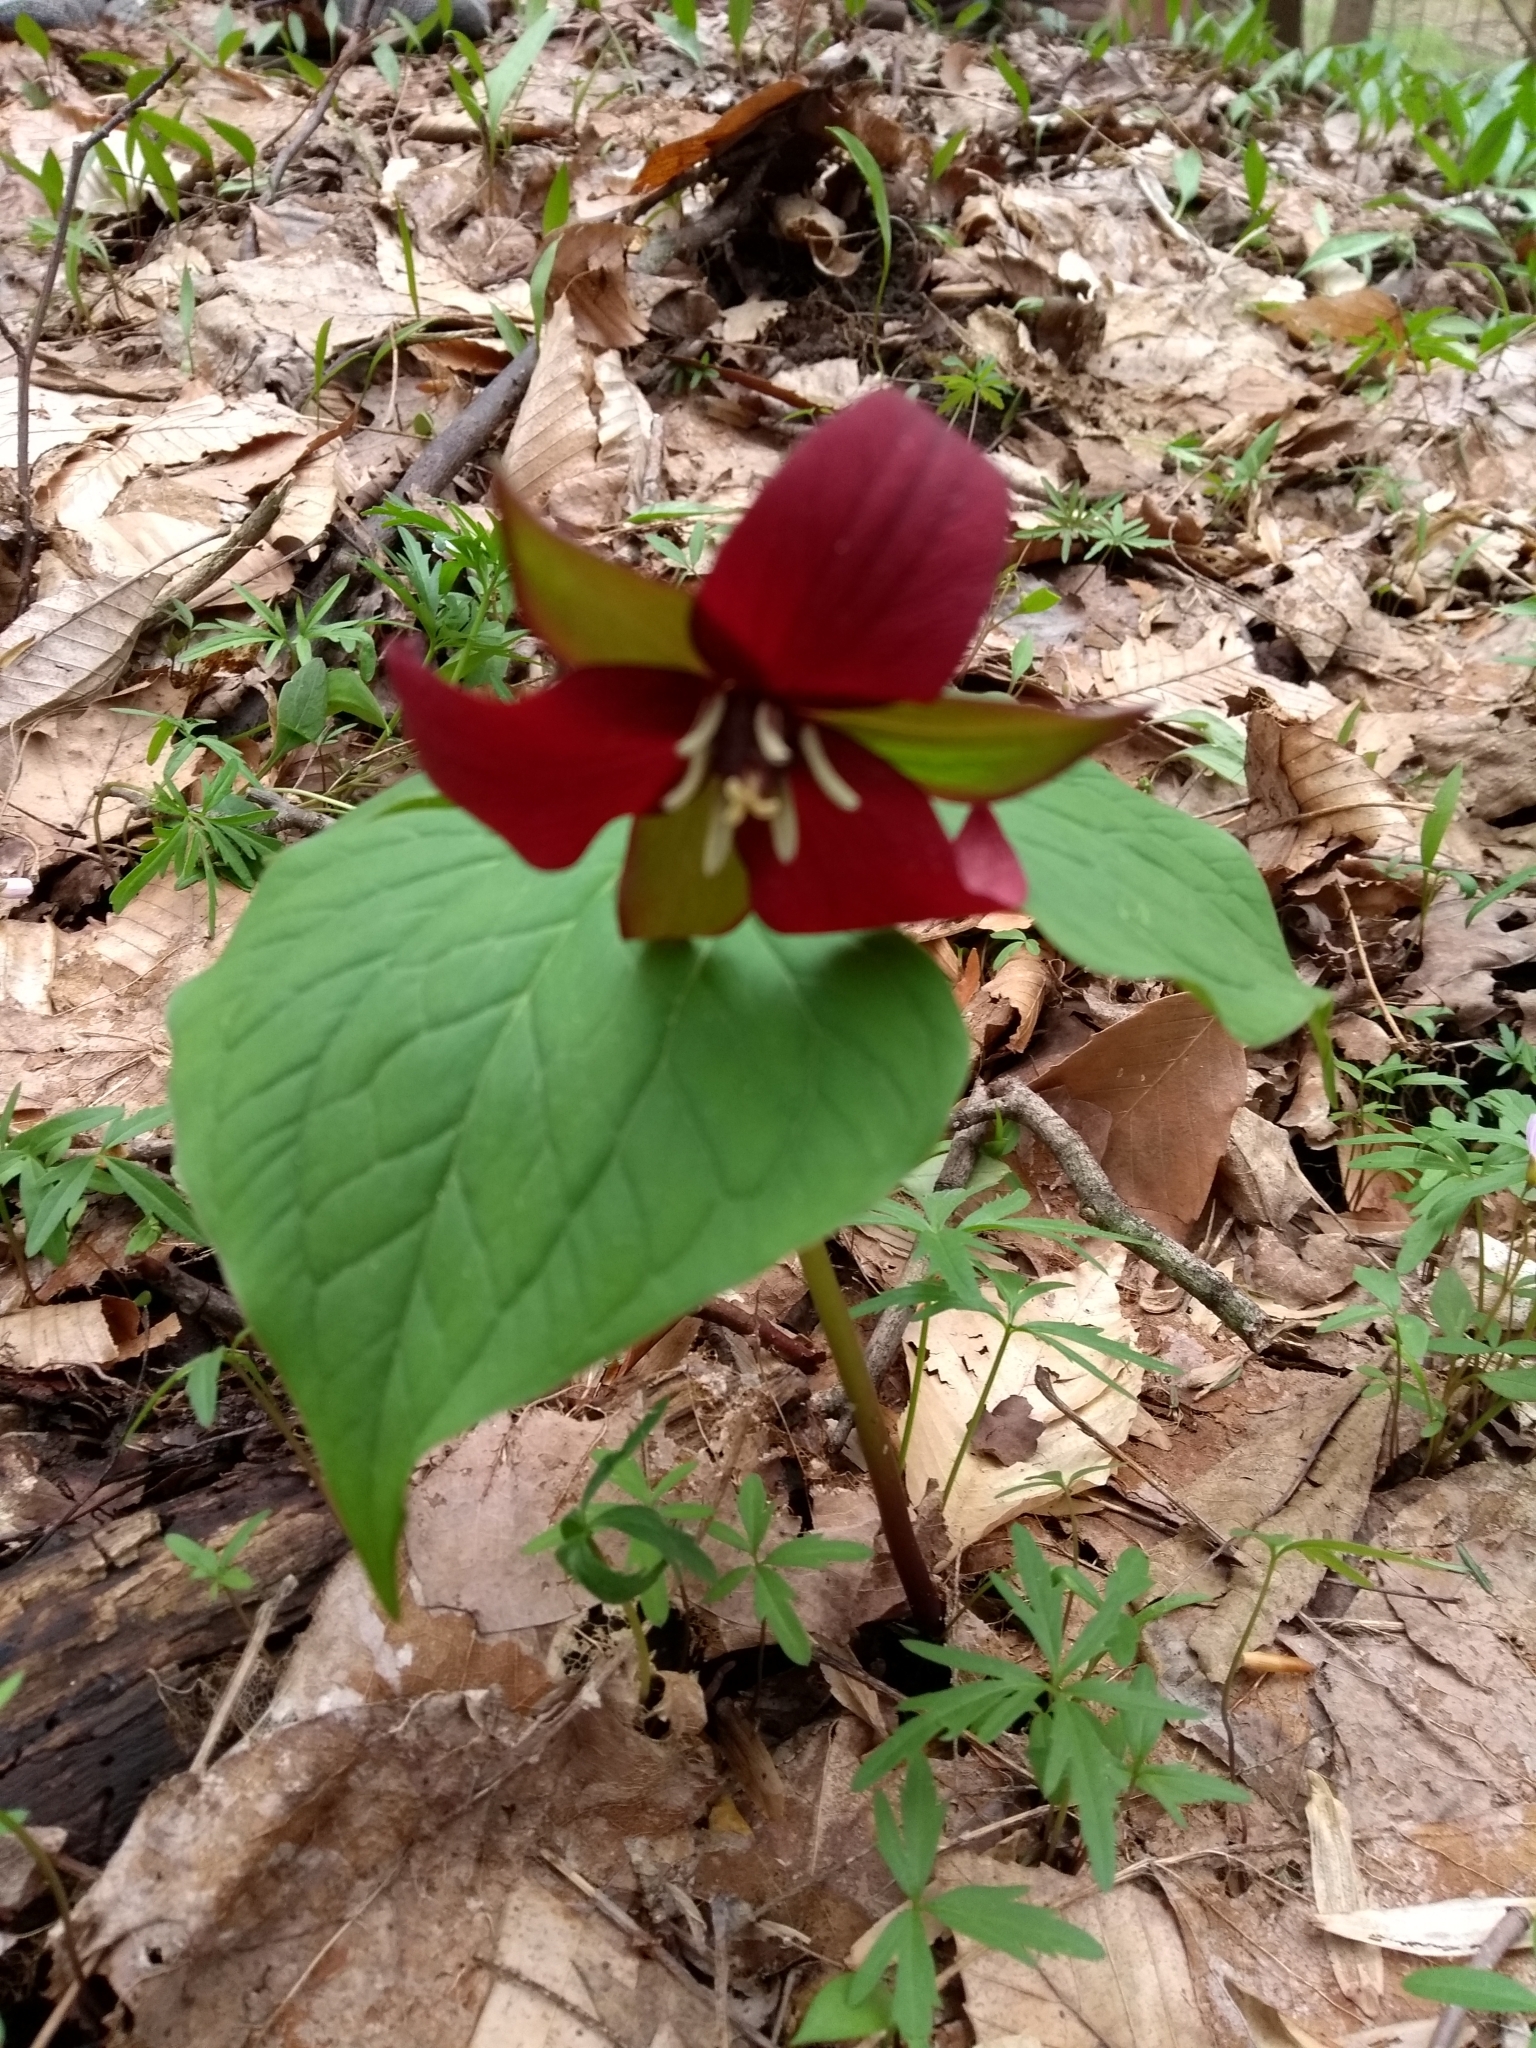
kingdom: Plantae
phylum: Tracheophyta
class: Liliopsida
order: Liliales
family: Melanthiaceae
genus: Trillium
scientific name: Trillium erectum
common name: Purple trillium
